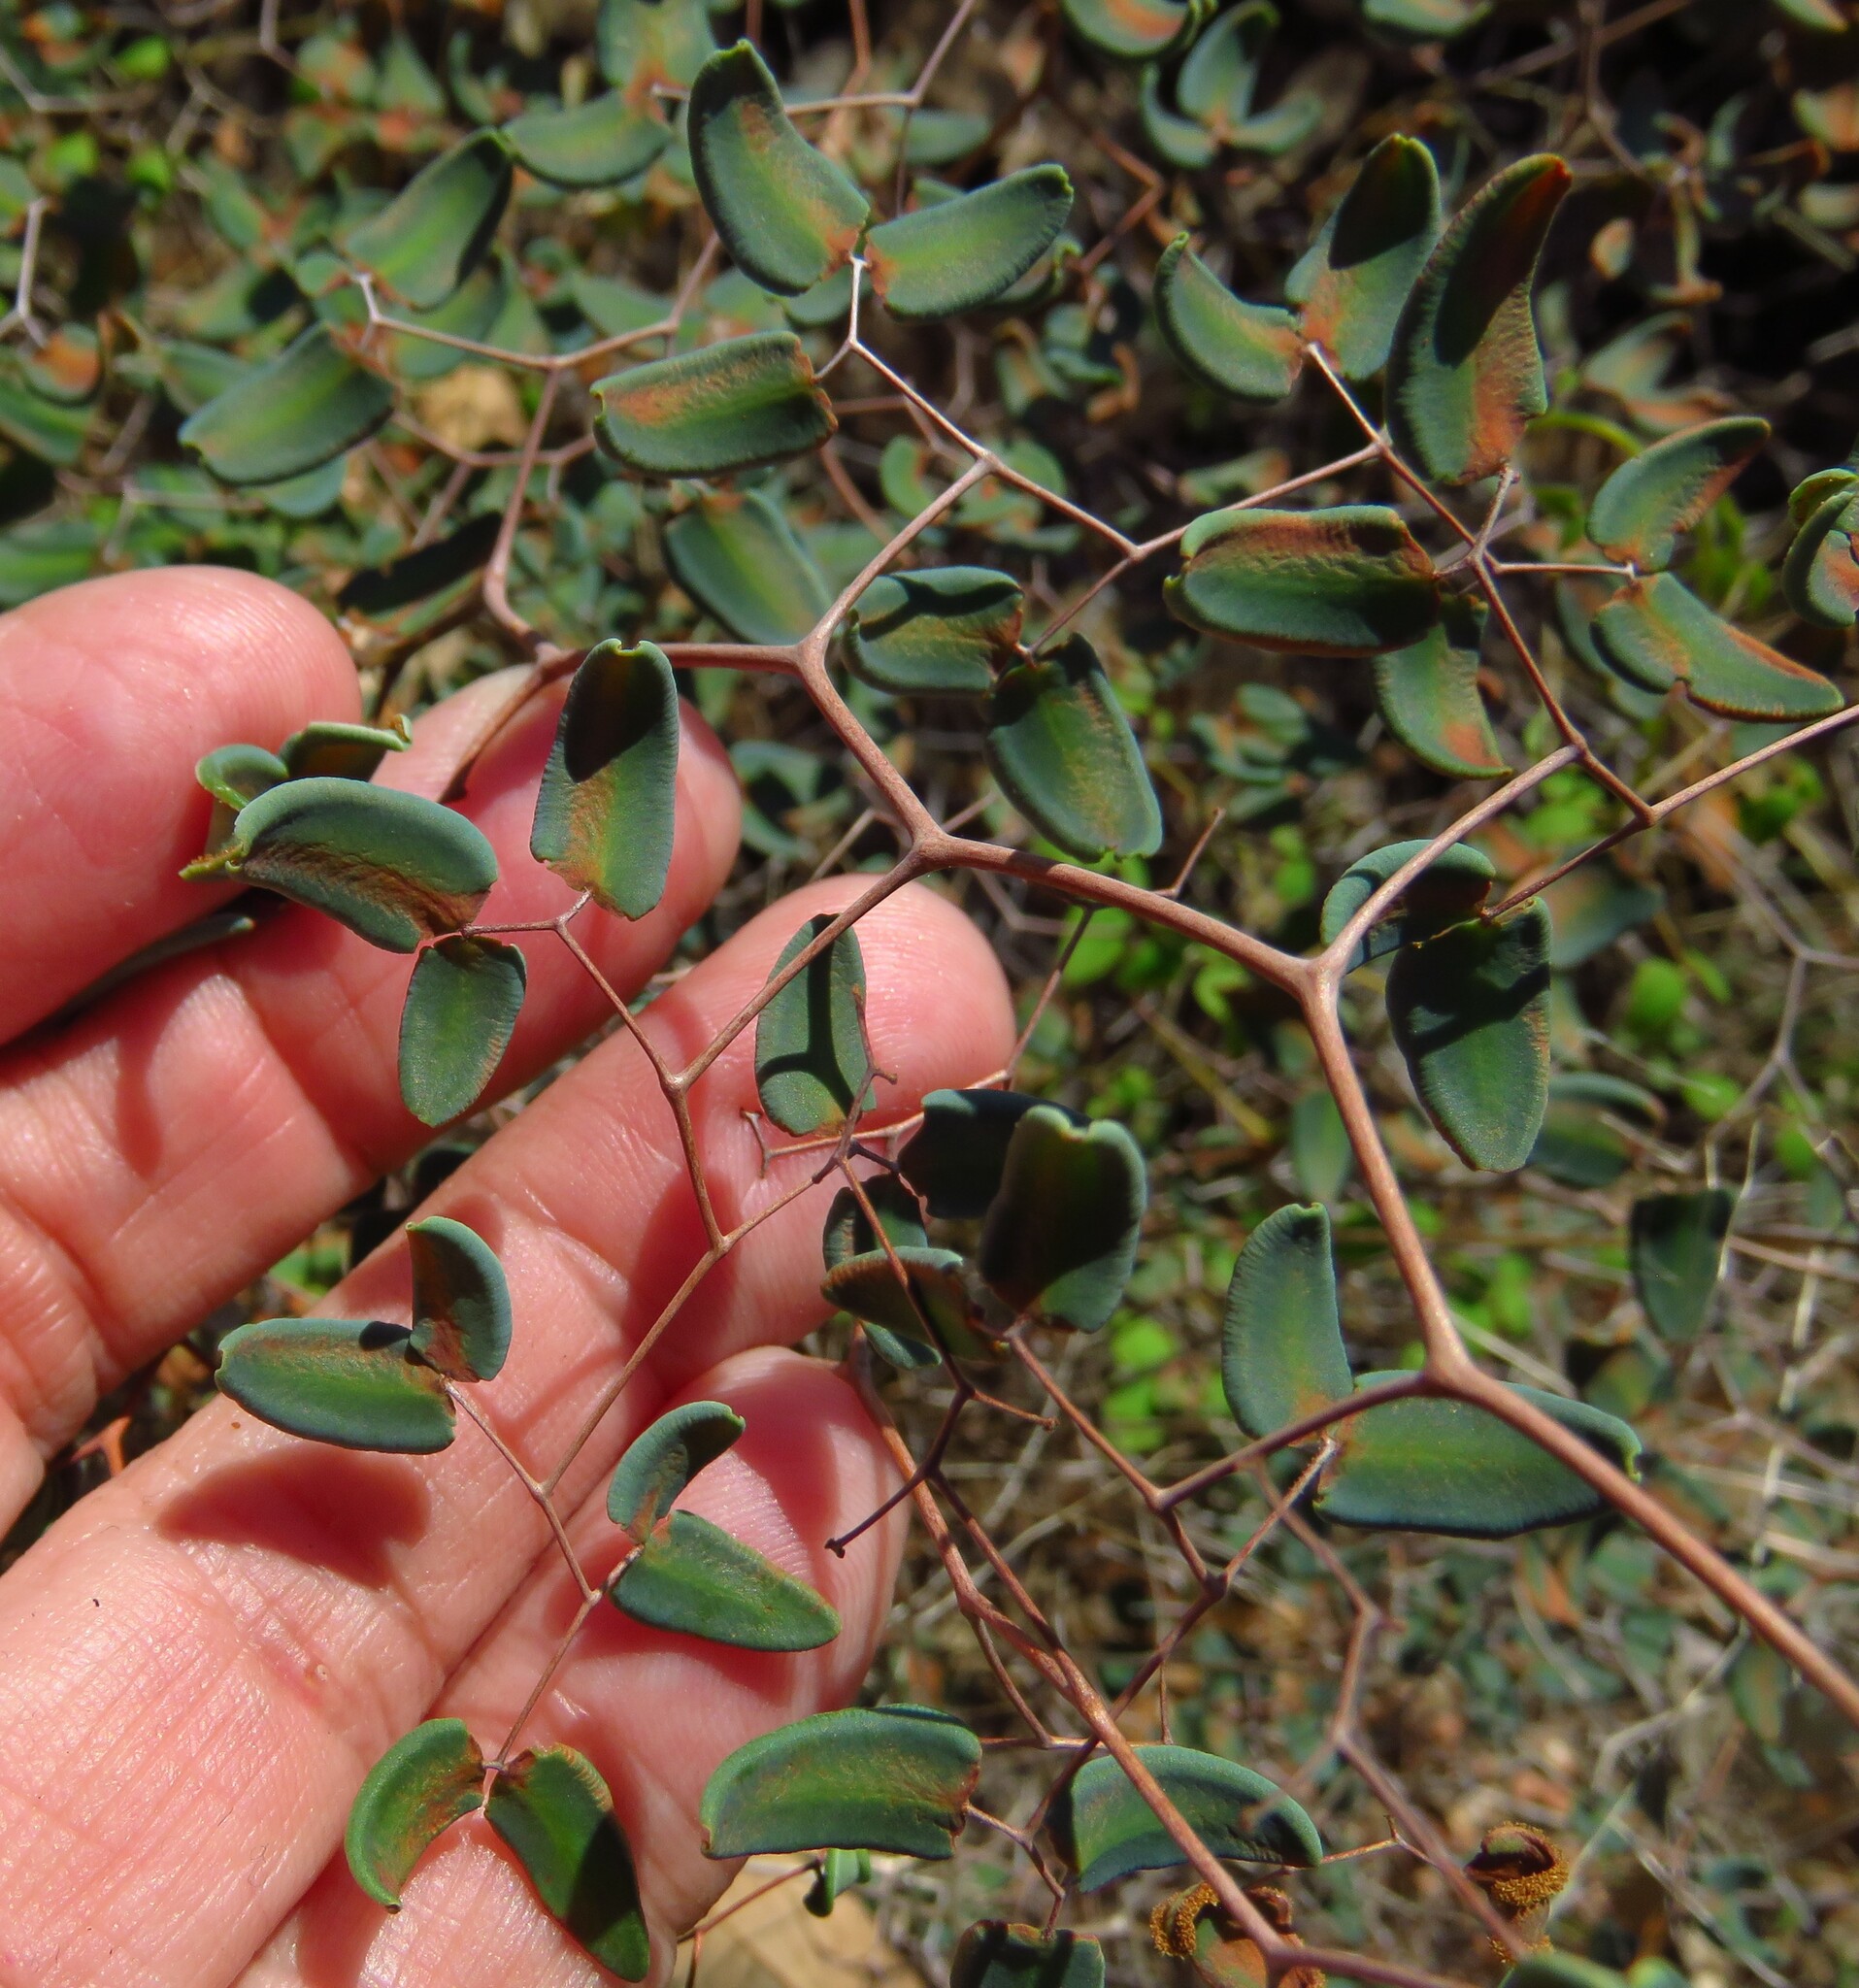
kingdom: Plantae
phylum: Tracheophyta
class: Polypodiopsida
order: Polypodiales
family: Pteridaceae
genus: Pellaea
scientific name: Pellaea ovata
